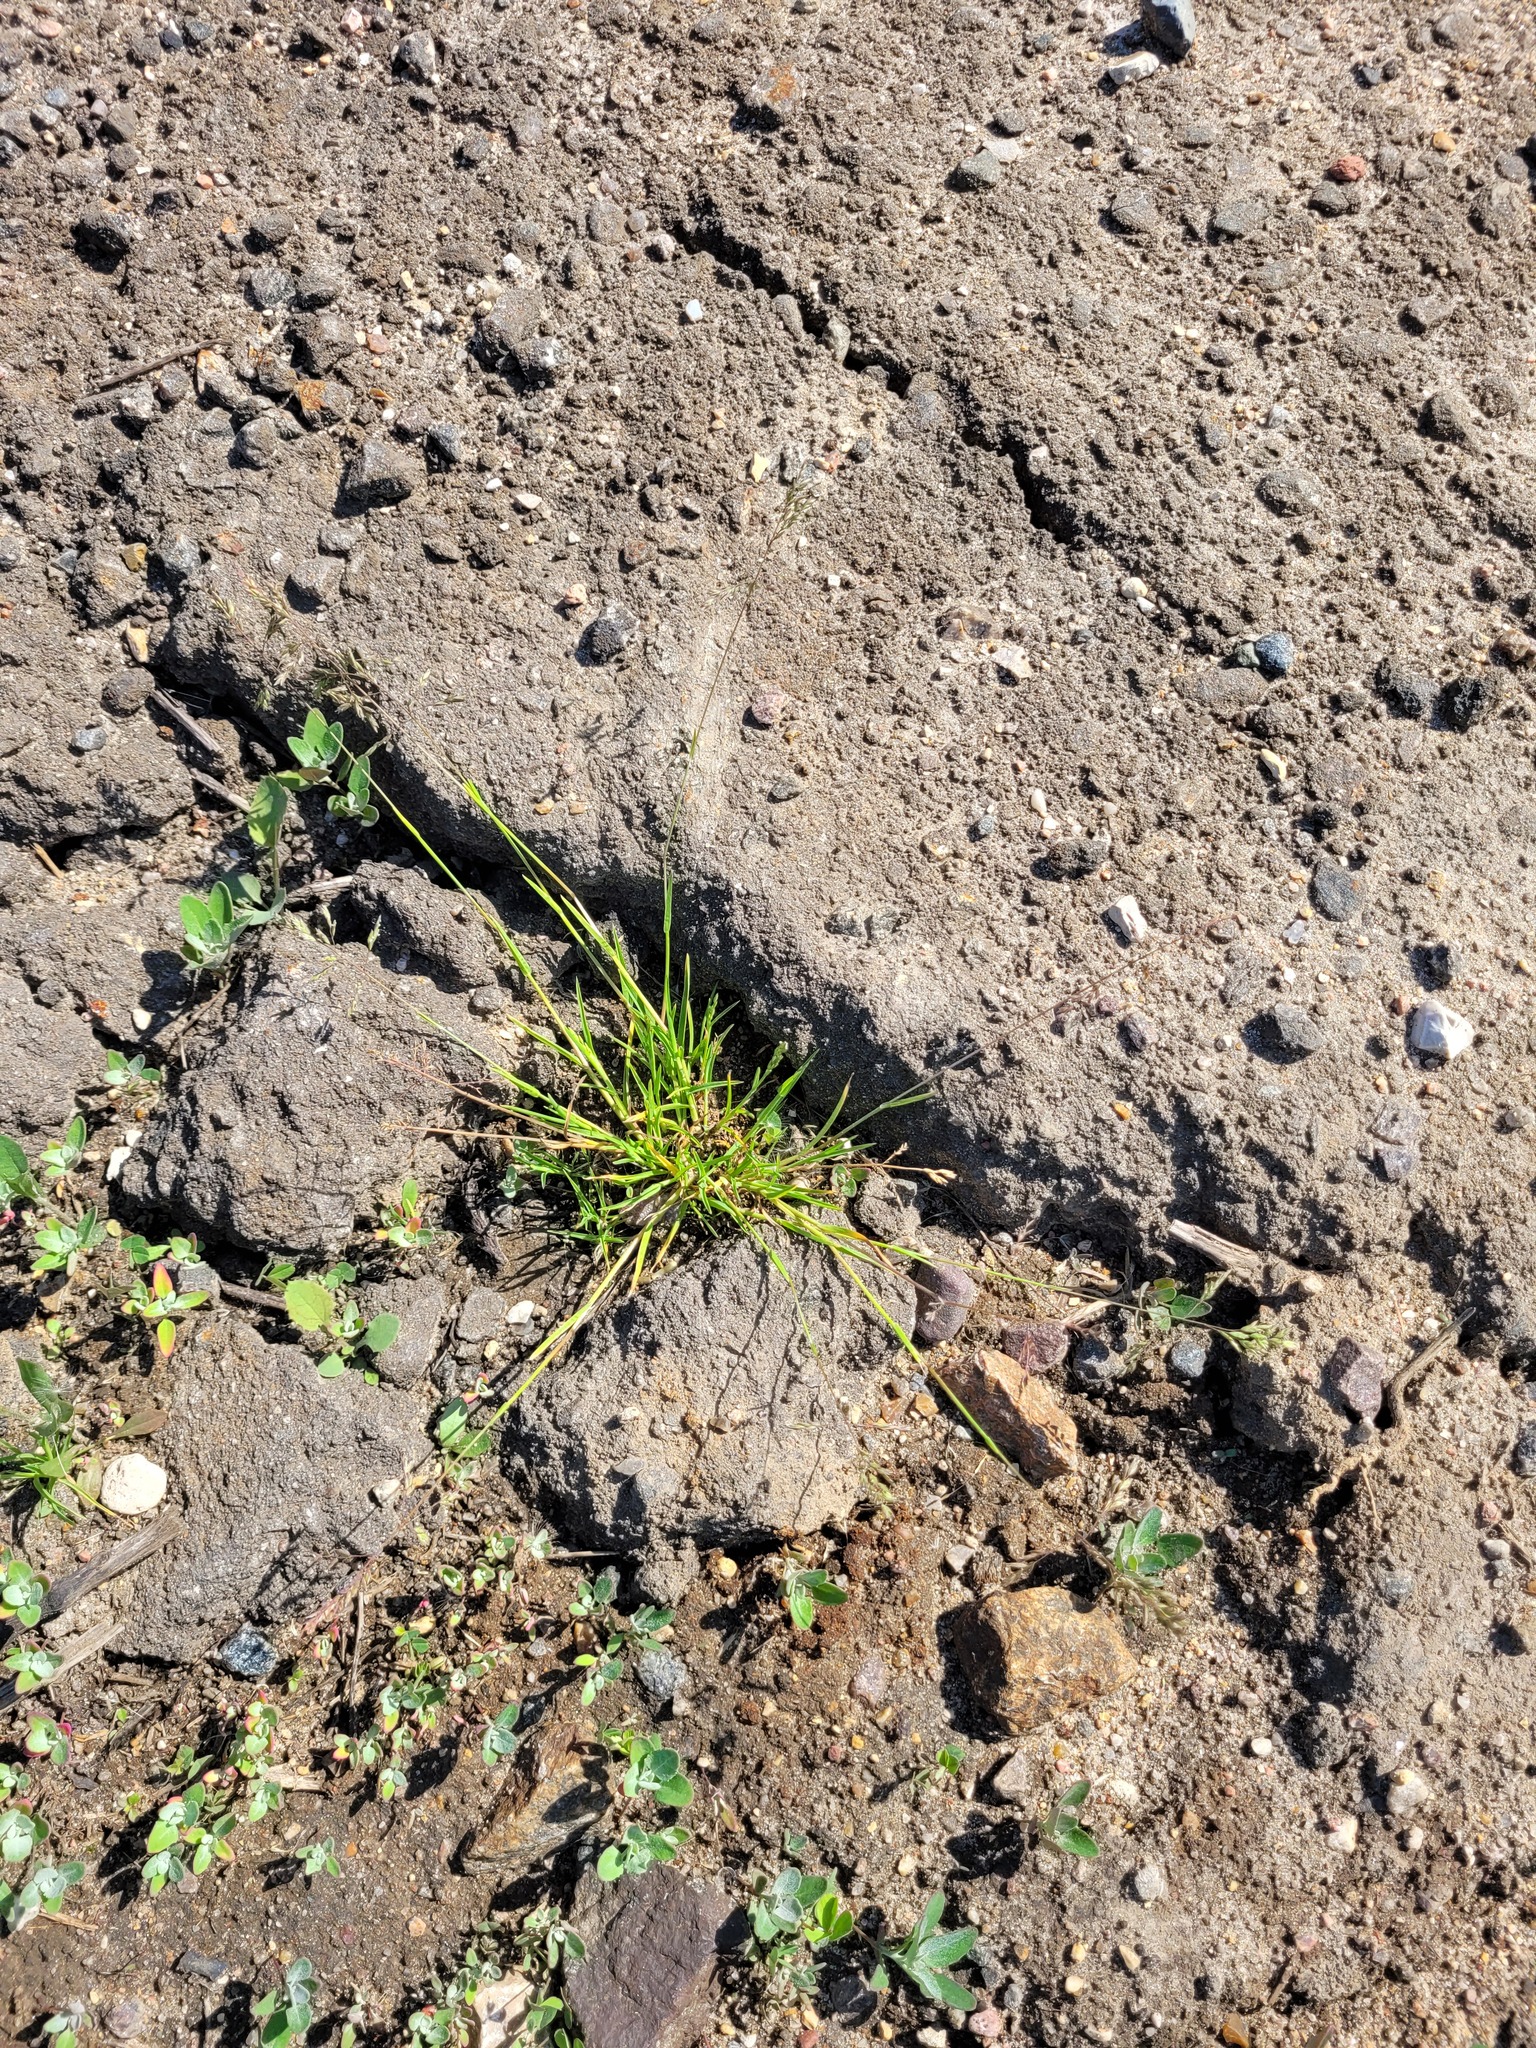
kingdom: Plantae
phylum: Tracheophyta
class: Liliopsida
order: Poales
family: Poaceae
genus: Poa
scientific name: Poa annua
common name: Annual bluegrass
